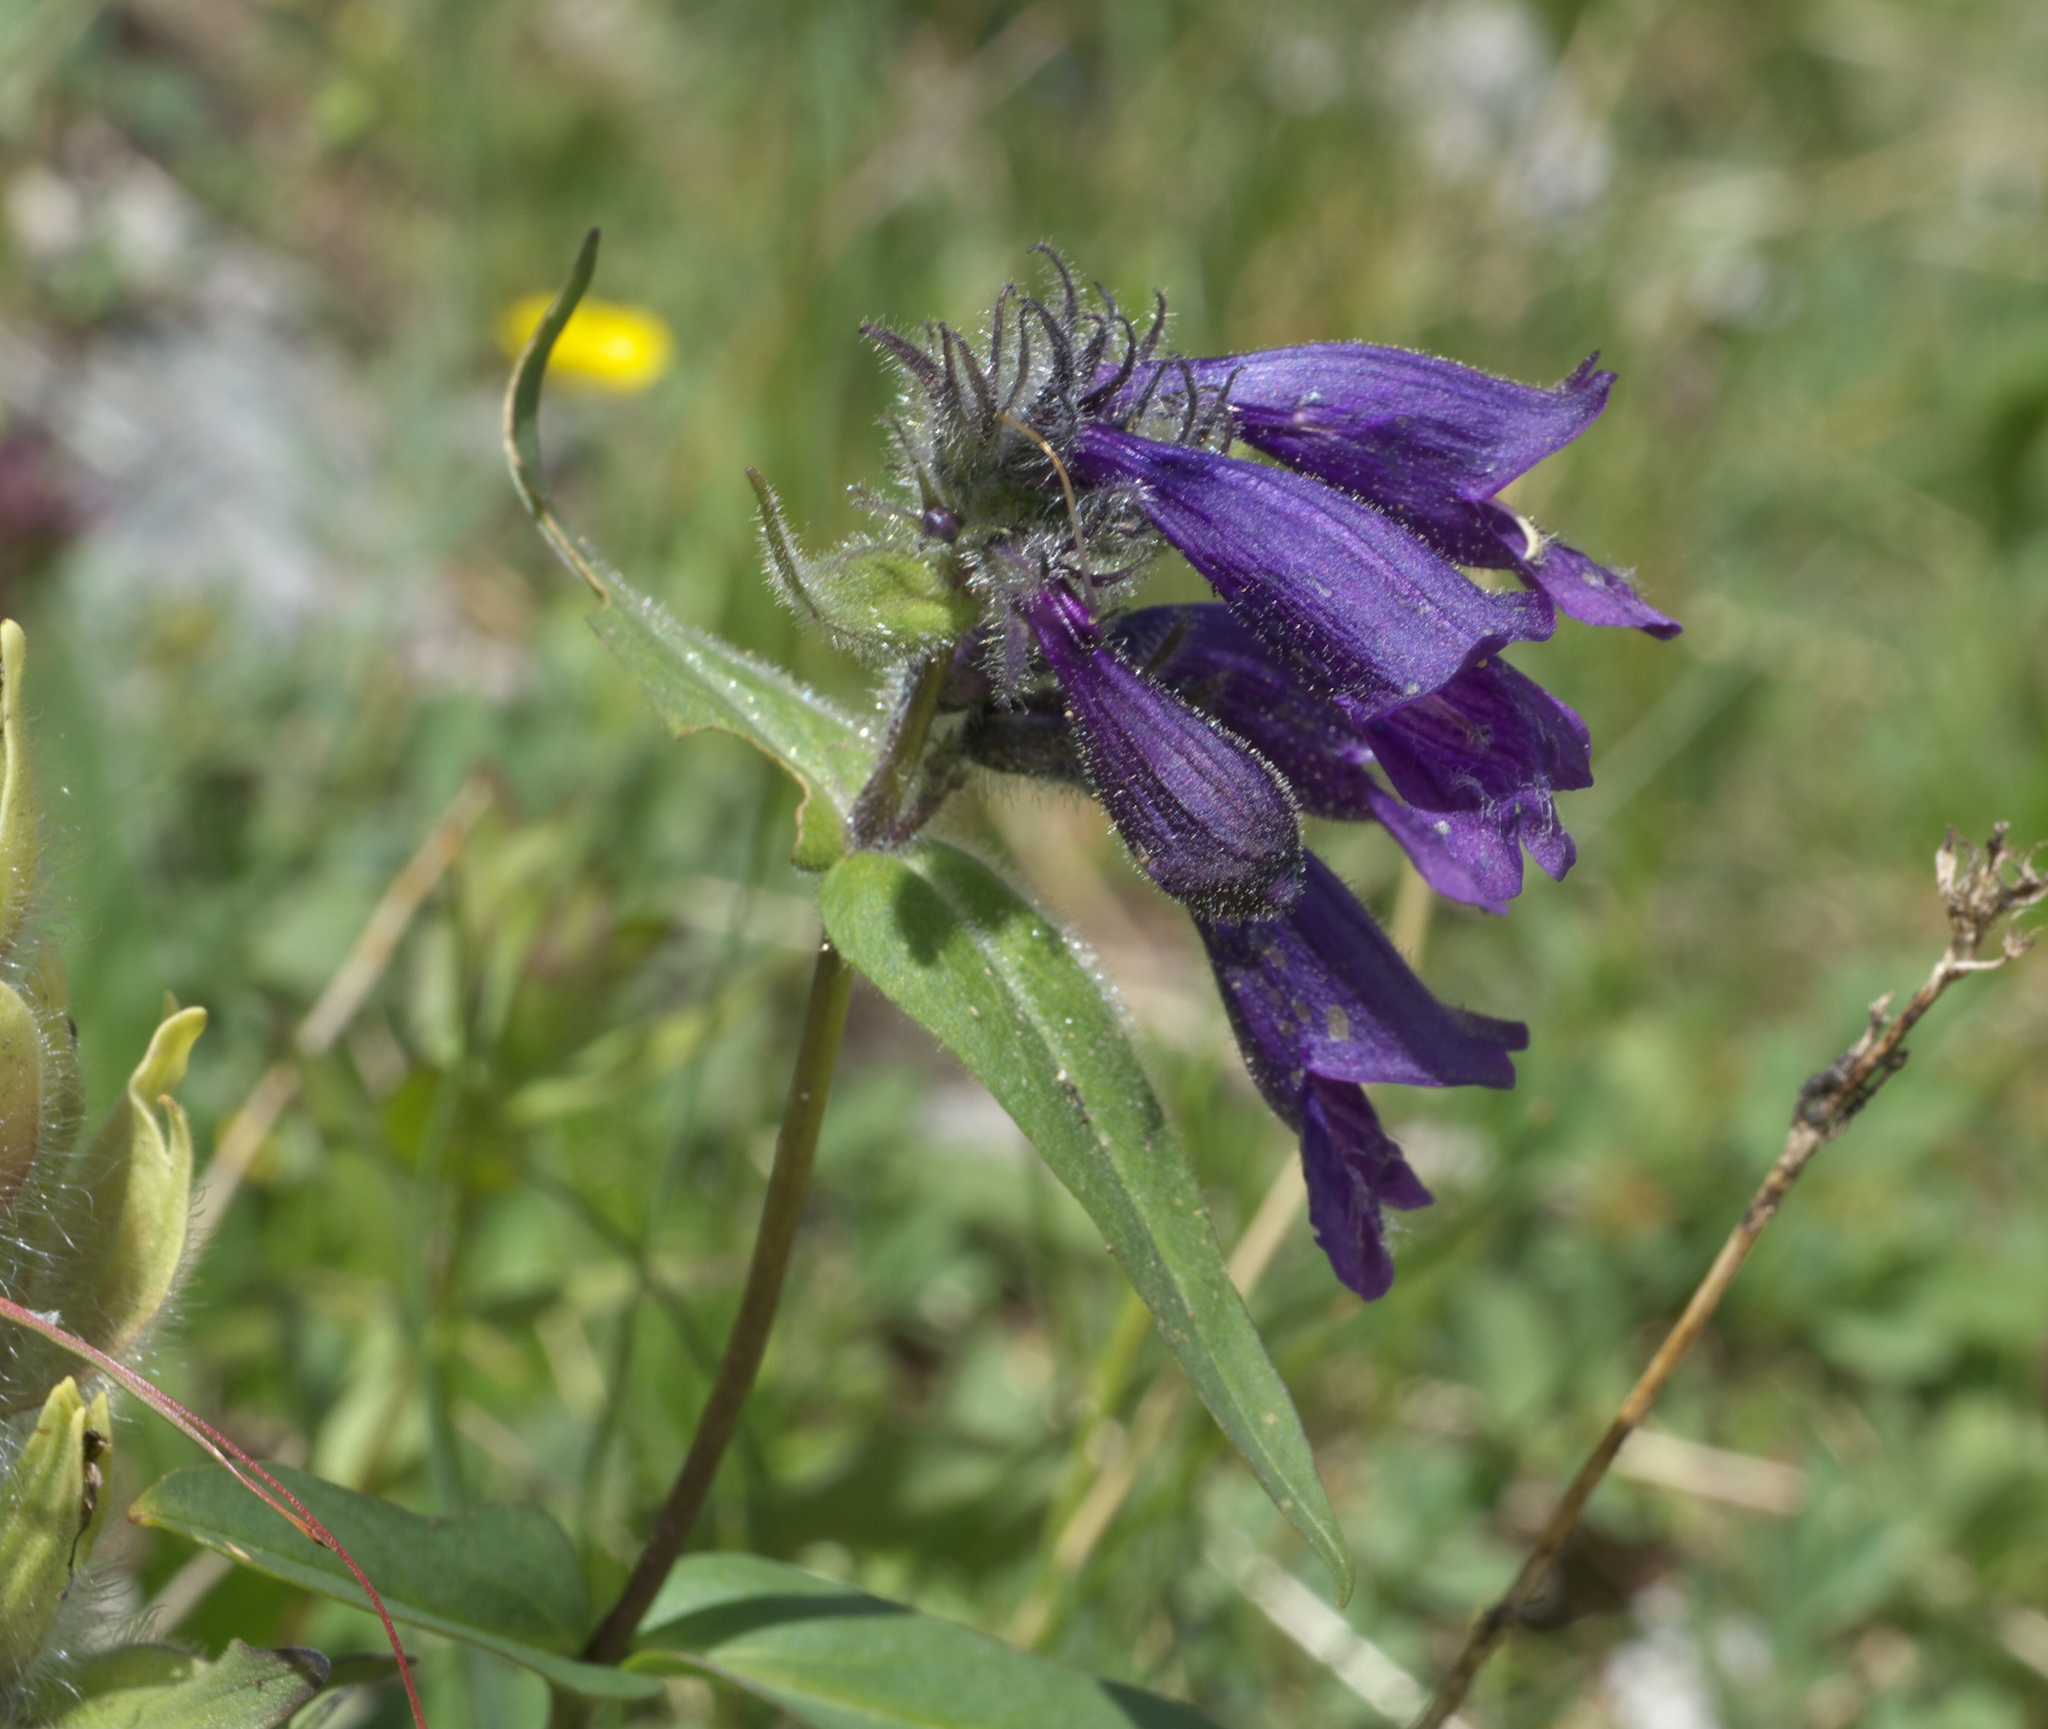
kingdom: Plantae
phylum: Tracheophyta
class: Magnoliopsida
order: Lamiales
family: Plantaginaceae
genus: Penstemon
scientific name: Penstemon whippleanus
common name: Whipple's penstemon
